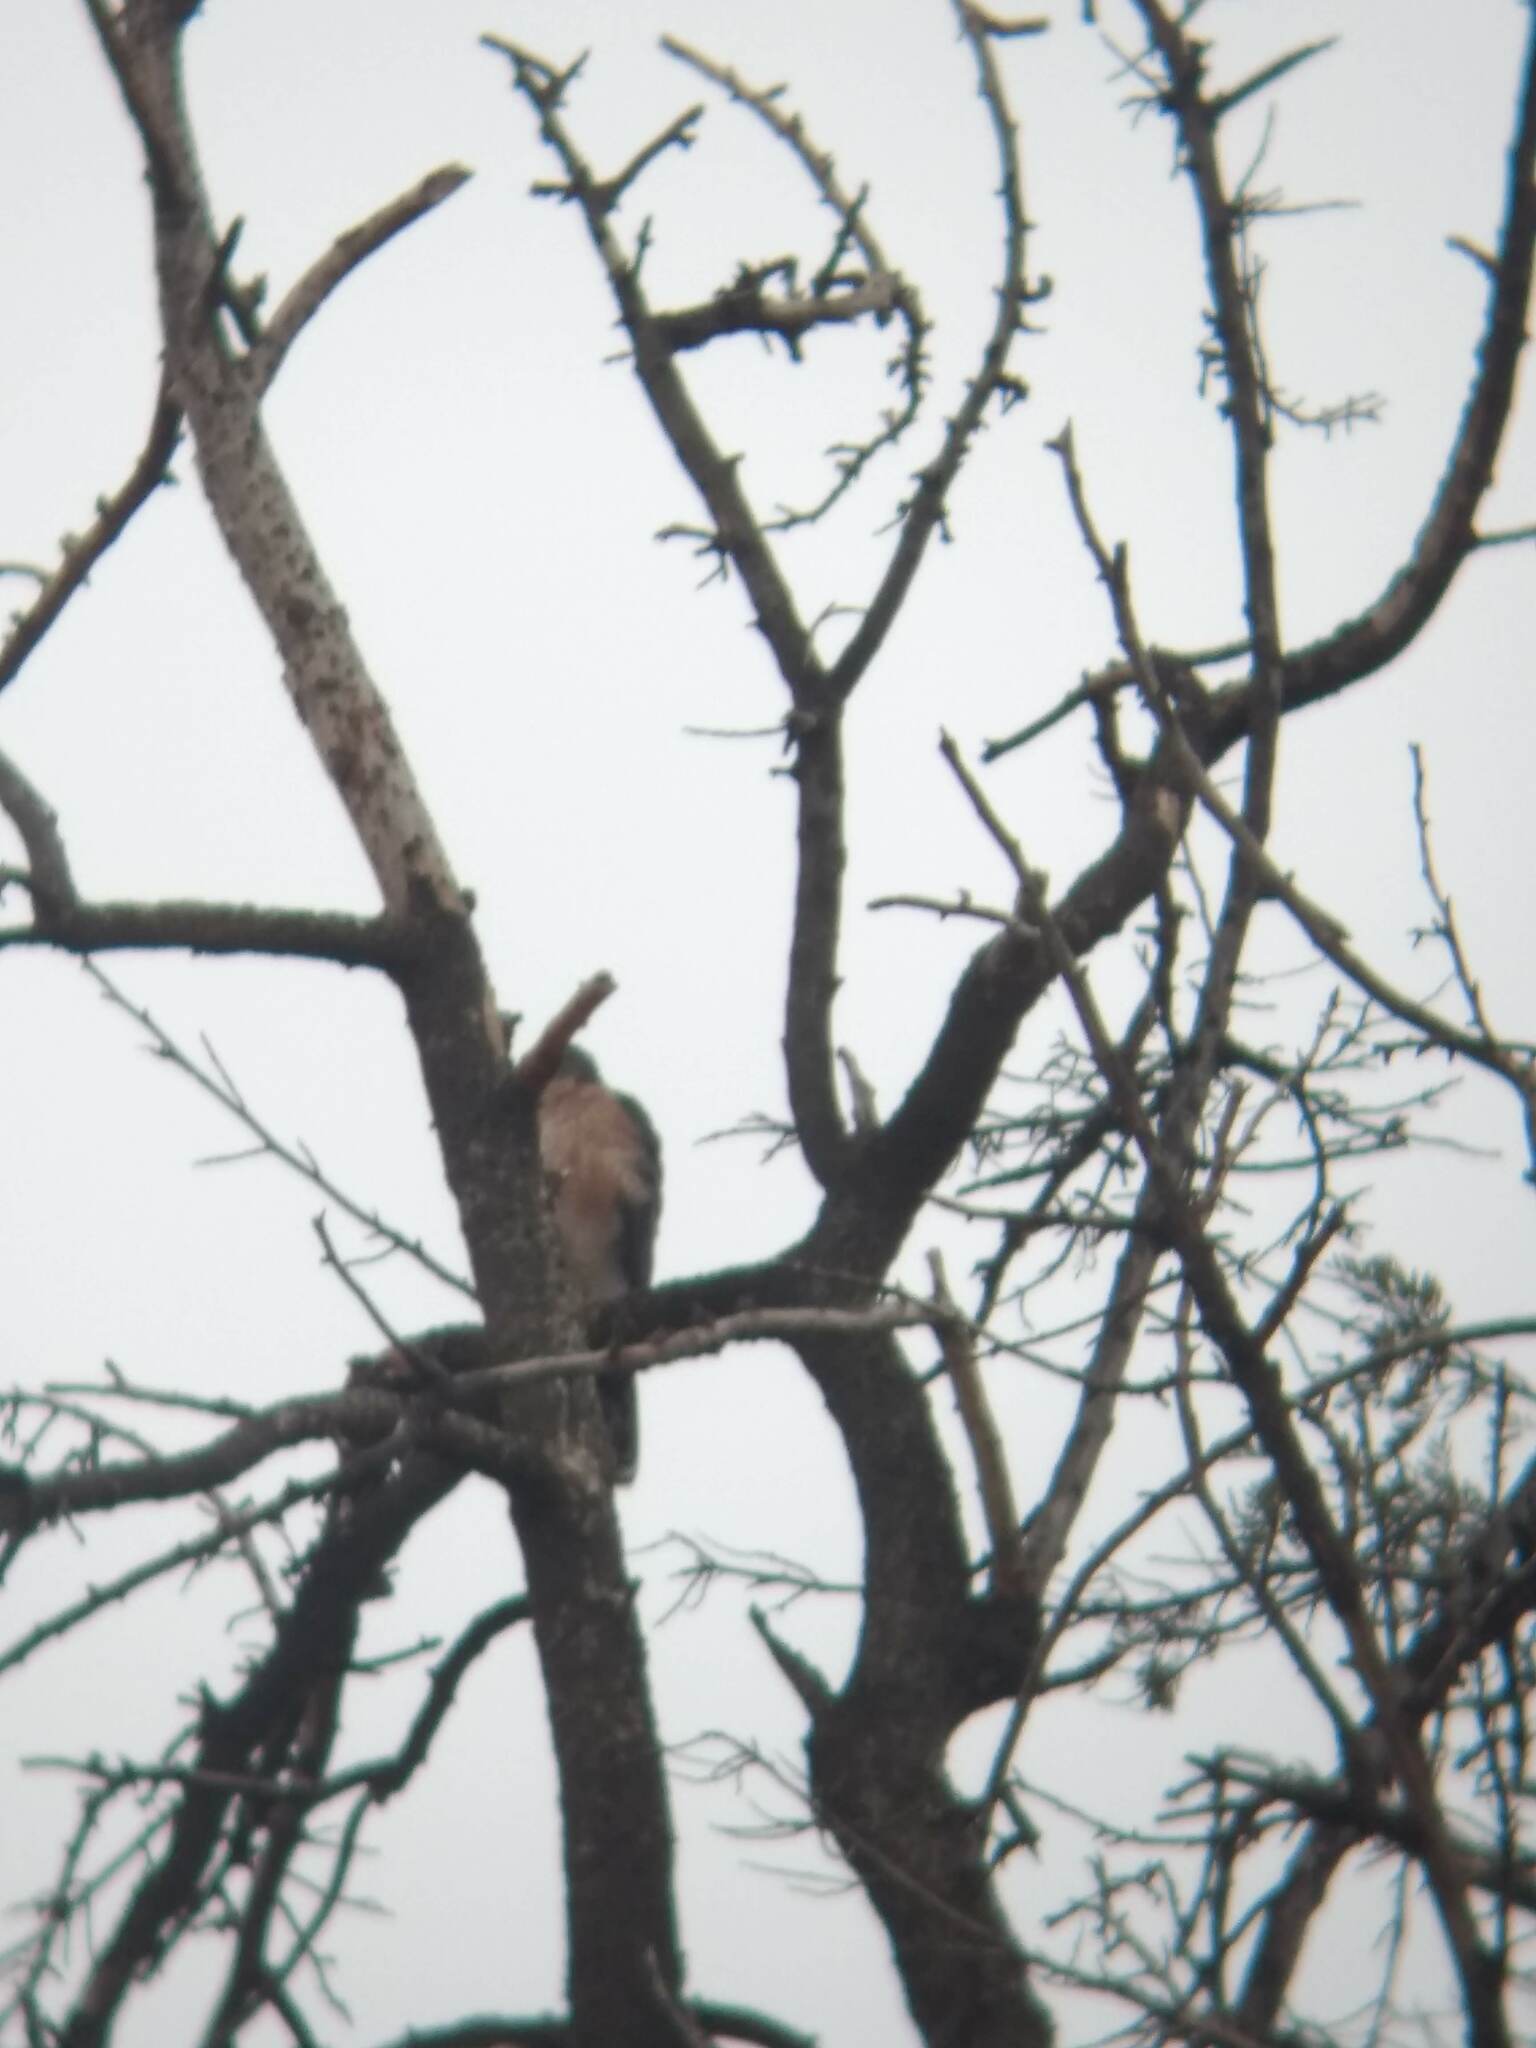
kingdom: Animalia
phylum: Chordata
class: Aves
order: Accipitriformes
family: Accipitridae
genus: Accipiter
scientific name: Accipiter cooperii
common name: Cooper's hawk
